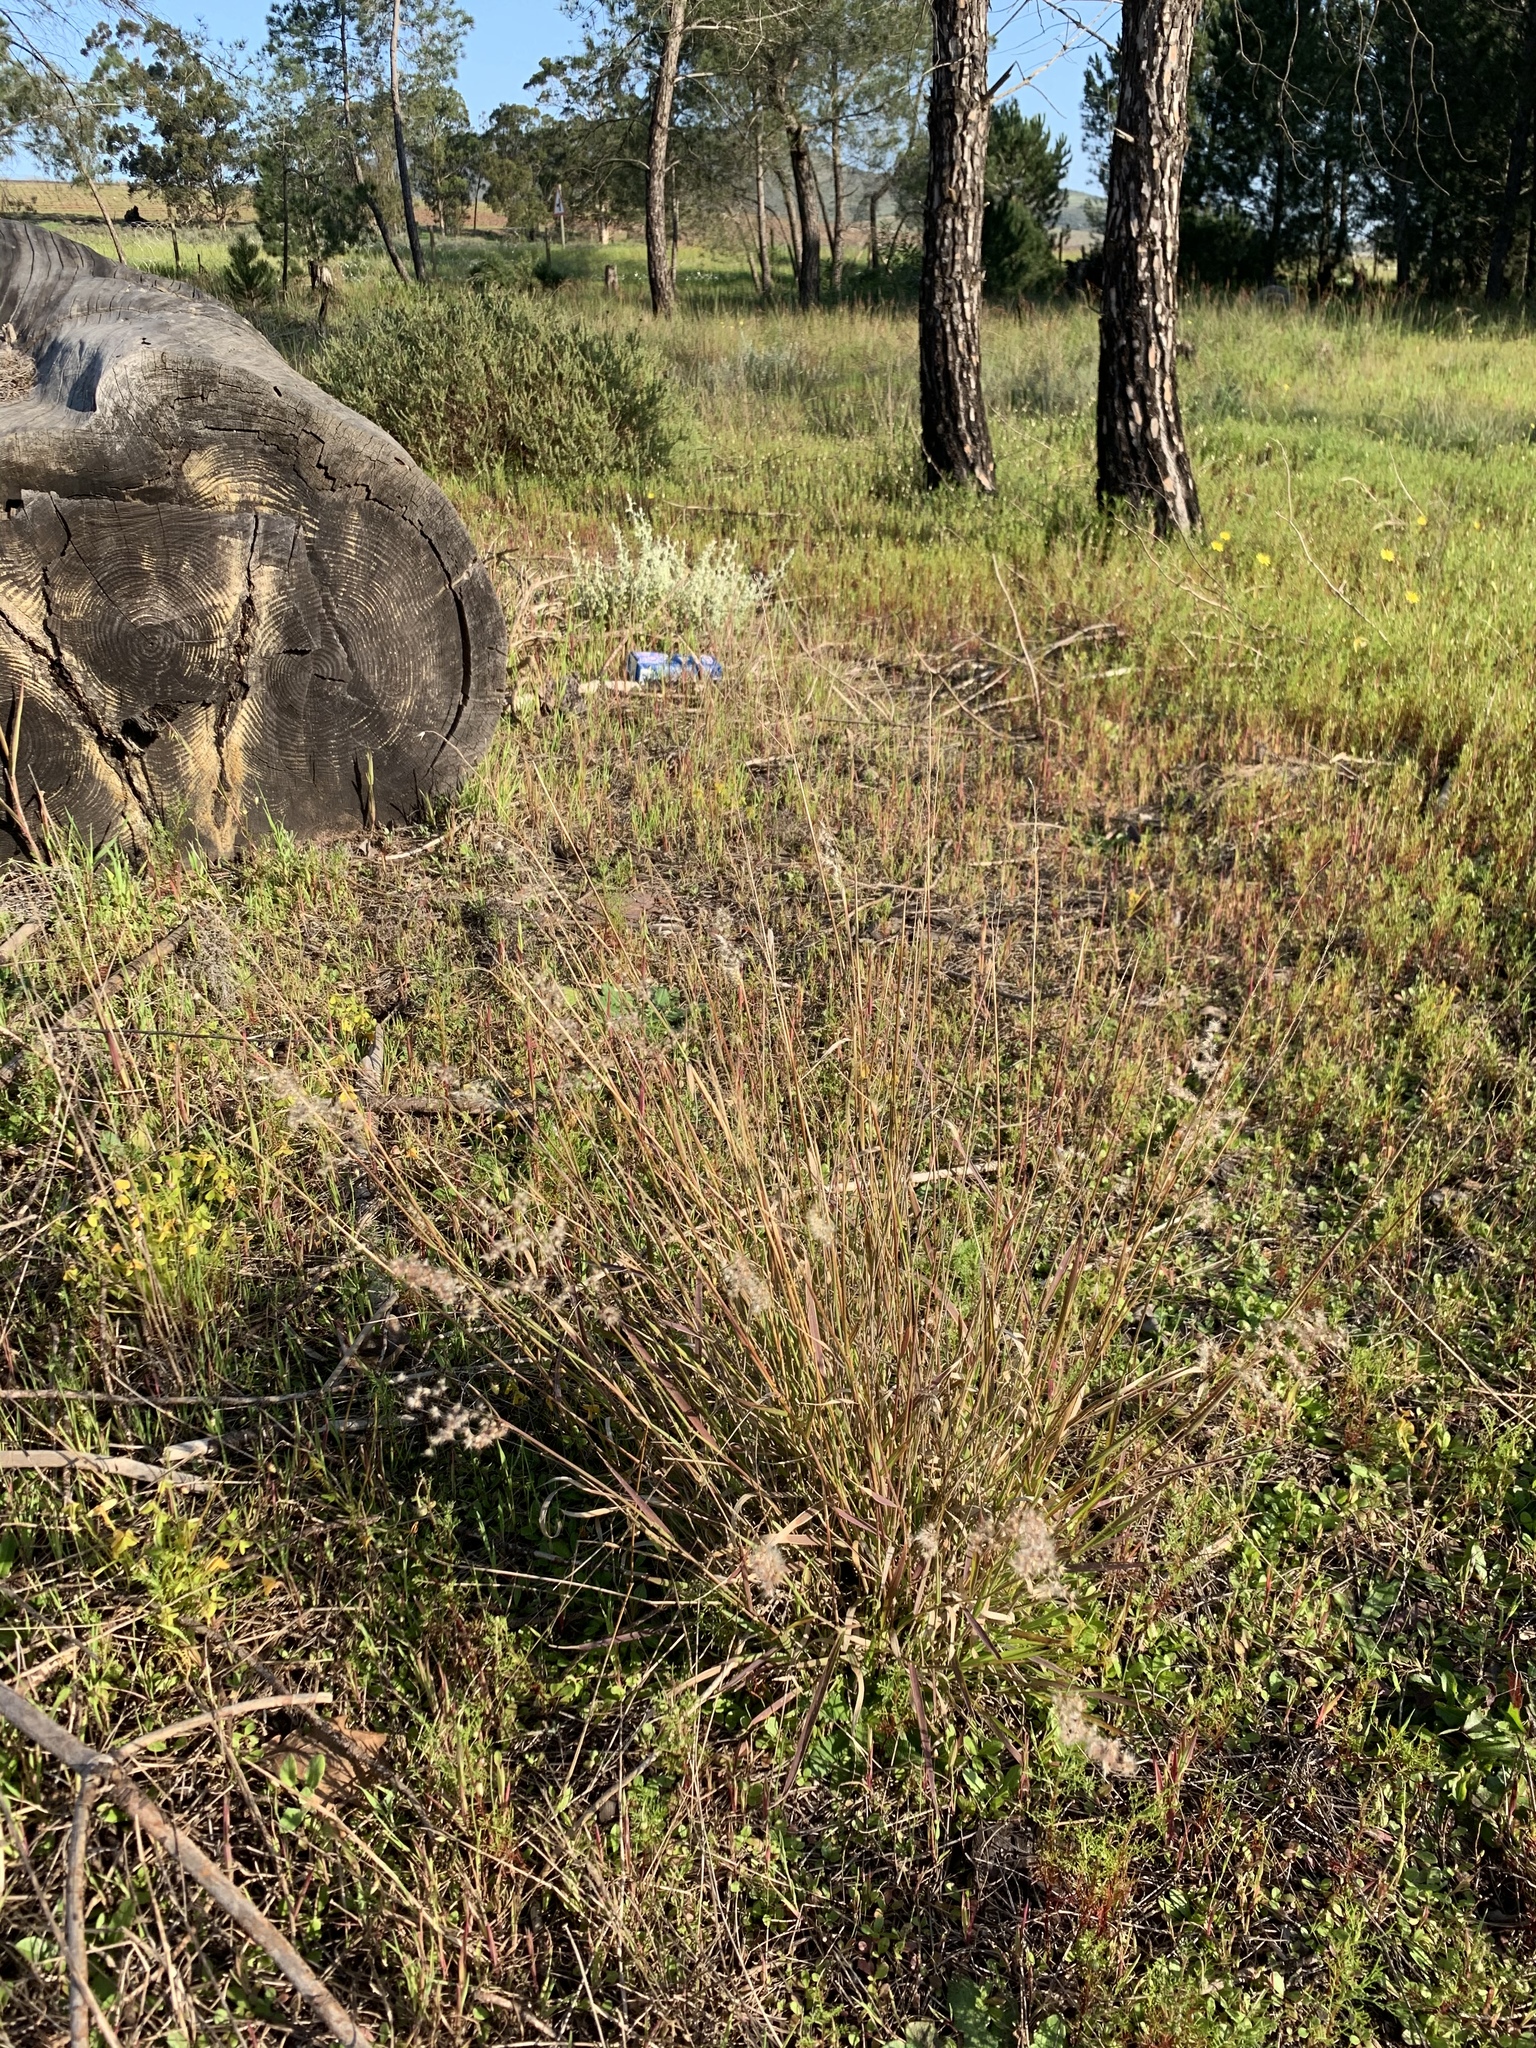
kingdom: Plantae
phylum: Tracheophyta
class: Liliopsida
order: Poales
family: Poaceae
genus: Melinis
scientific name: Melinis repens
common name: Rose natal grass
